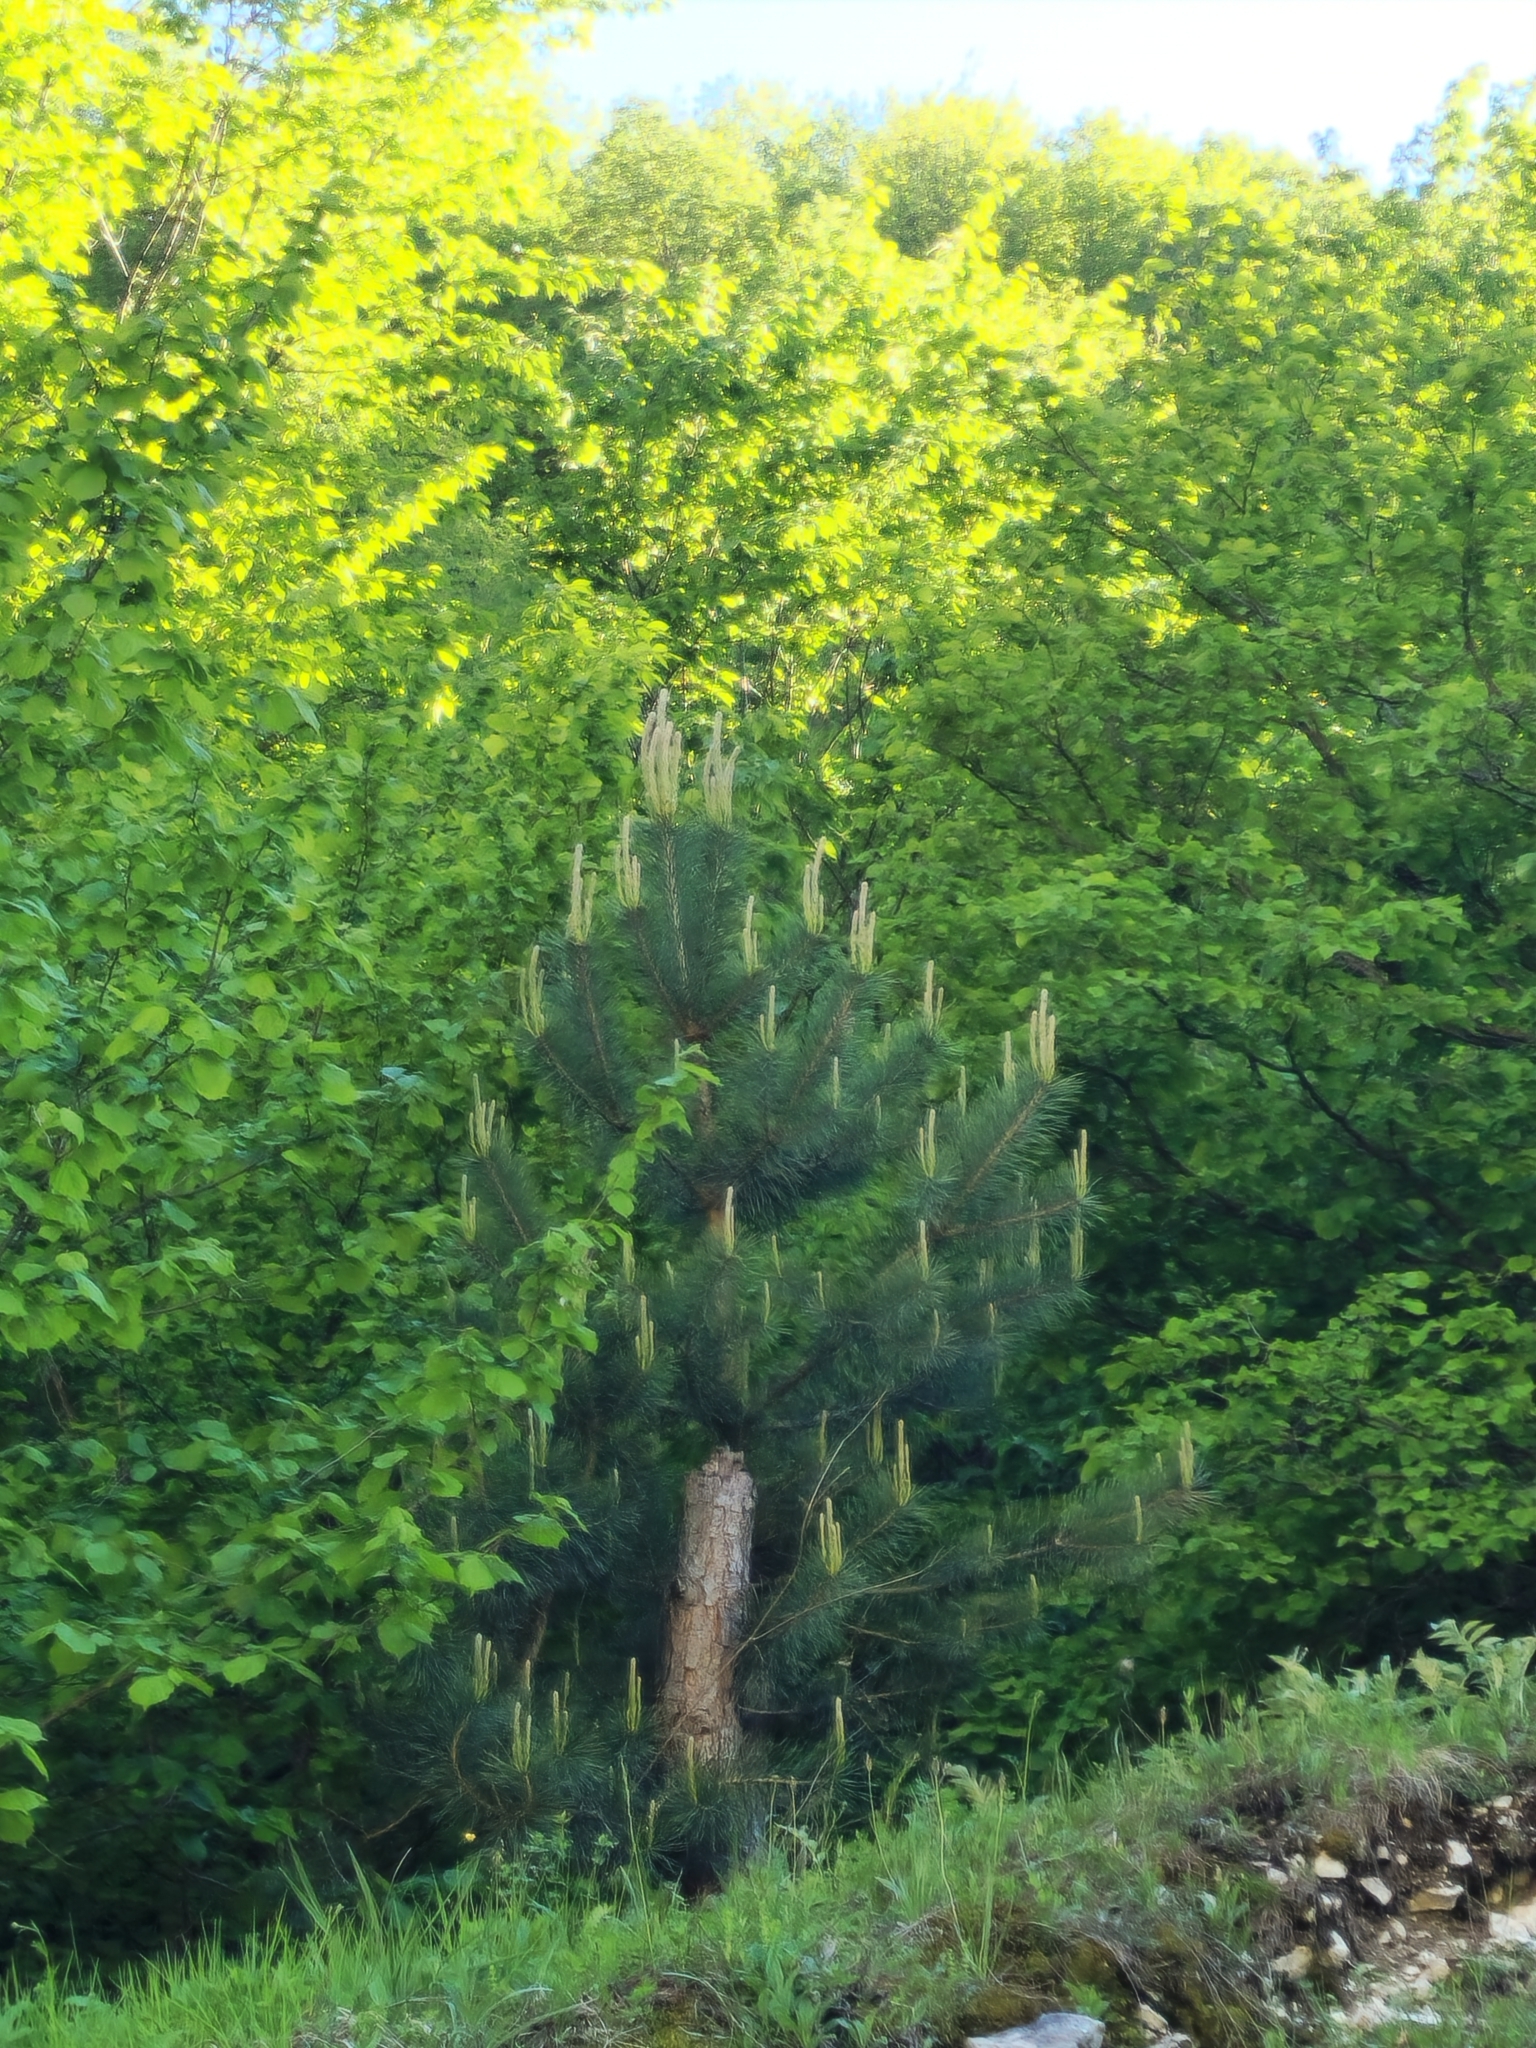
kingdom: Plantae
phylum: Tracheophyta
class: Pinopsida
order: Pinales
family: Pinaceae
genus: Pinus
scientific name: Pinus sylvestris
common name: Scots pine
